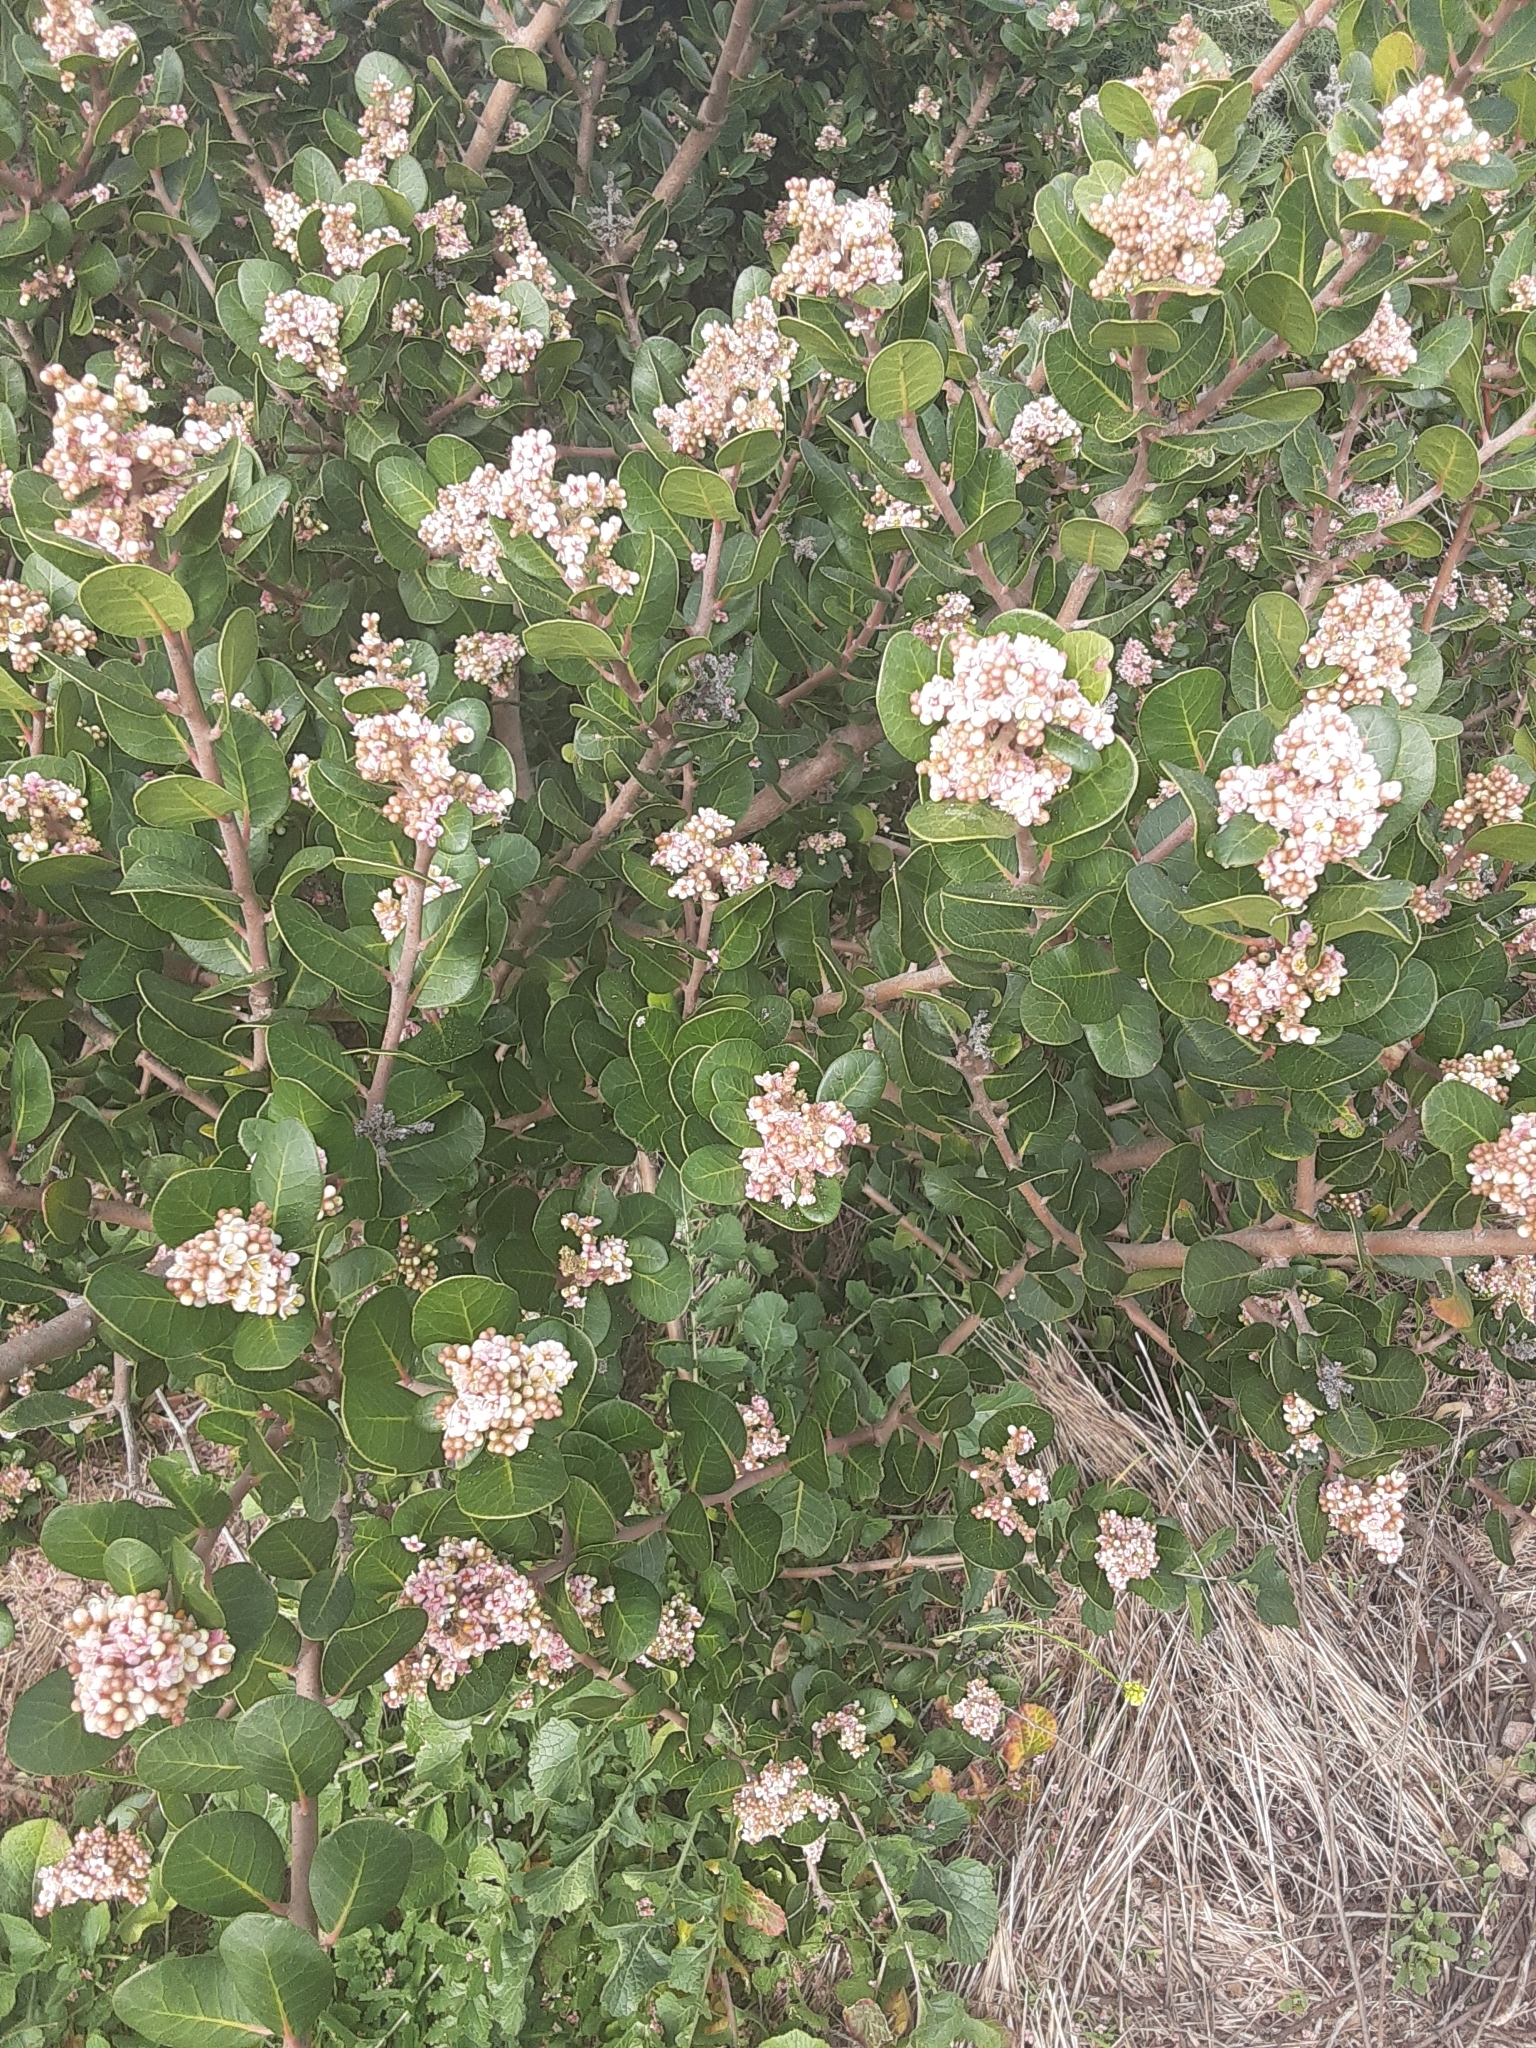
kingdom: Plantae
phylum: Tracheophyta
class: Magnoliopsida
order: Sapindales
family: Anacardiaceae
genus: Rhus
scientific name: Rhus integrifolia
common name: Lemonade sumac
